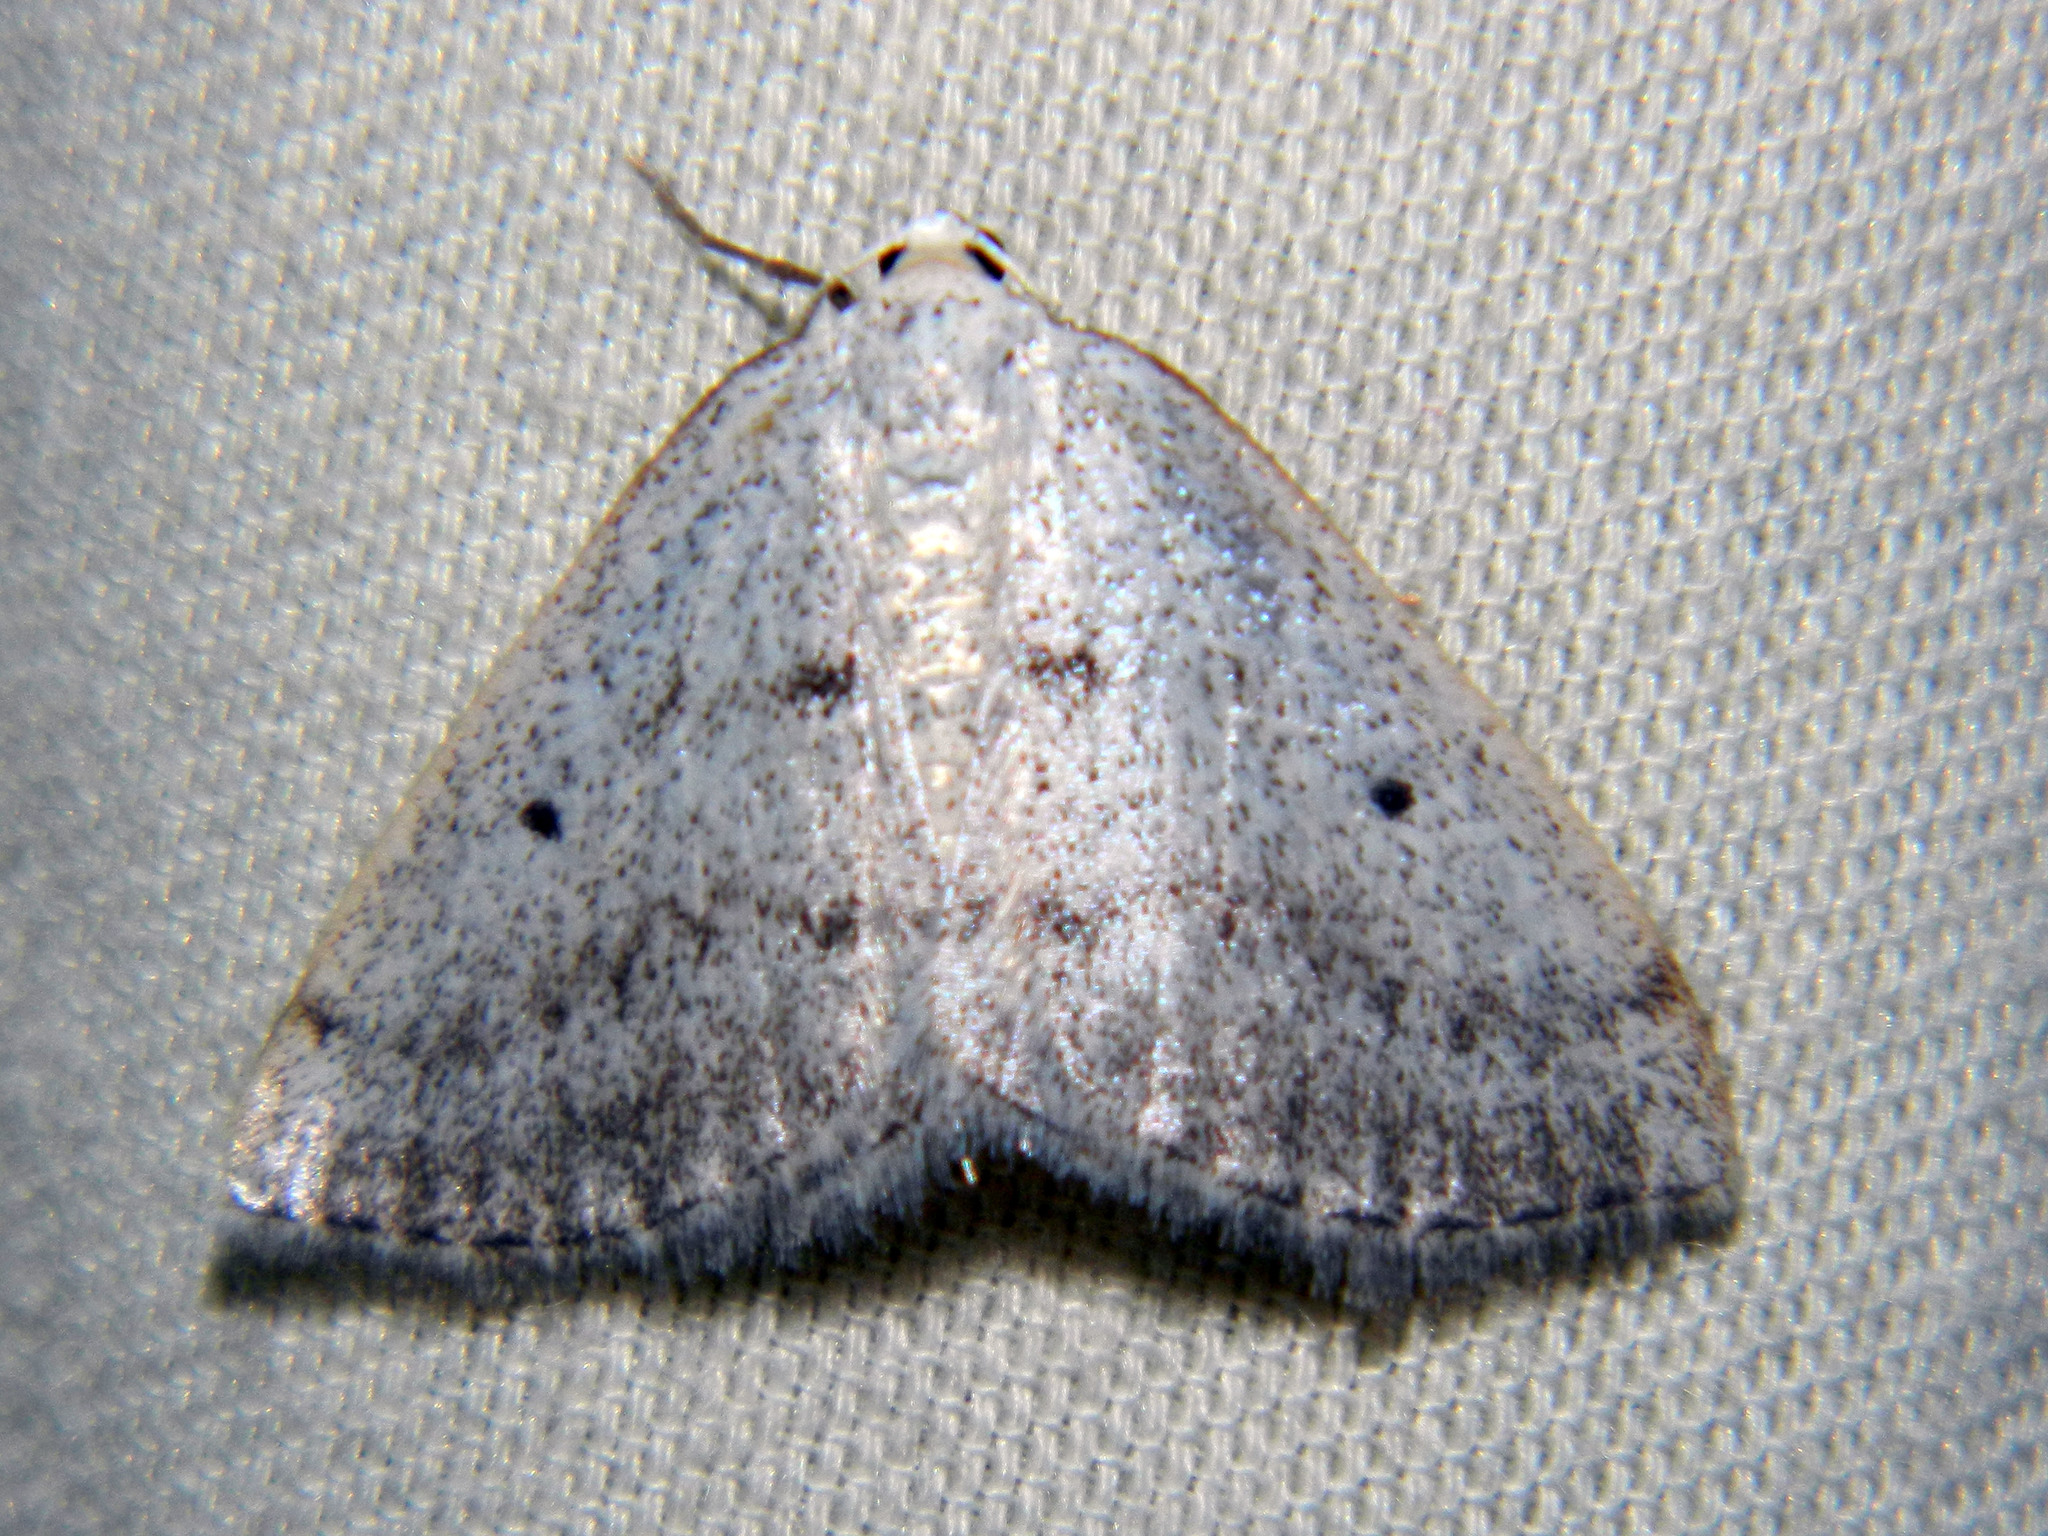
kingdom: Animalia
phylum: Arthropoda
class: Insecta
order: Lepidoptera
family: Geometridae
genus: Lomographa
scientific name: Lomographa glomeraria
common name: Gray spring moth
